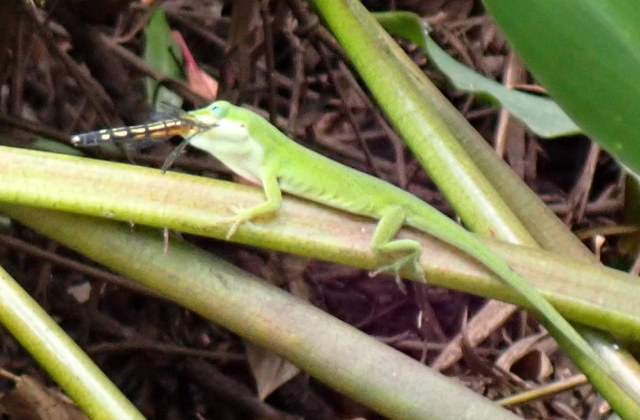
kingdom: Animalia
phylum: Chordata
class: Squamata
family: Dactyloidae
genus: Anolis
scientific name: Anolis carolinensis
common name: Green anole
